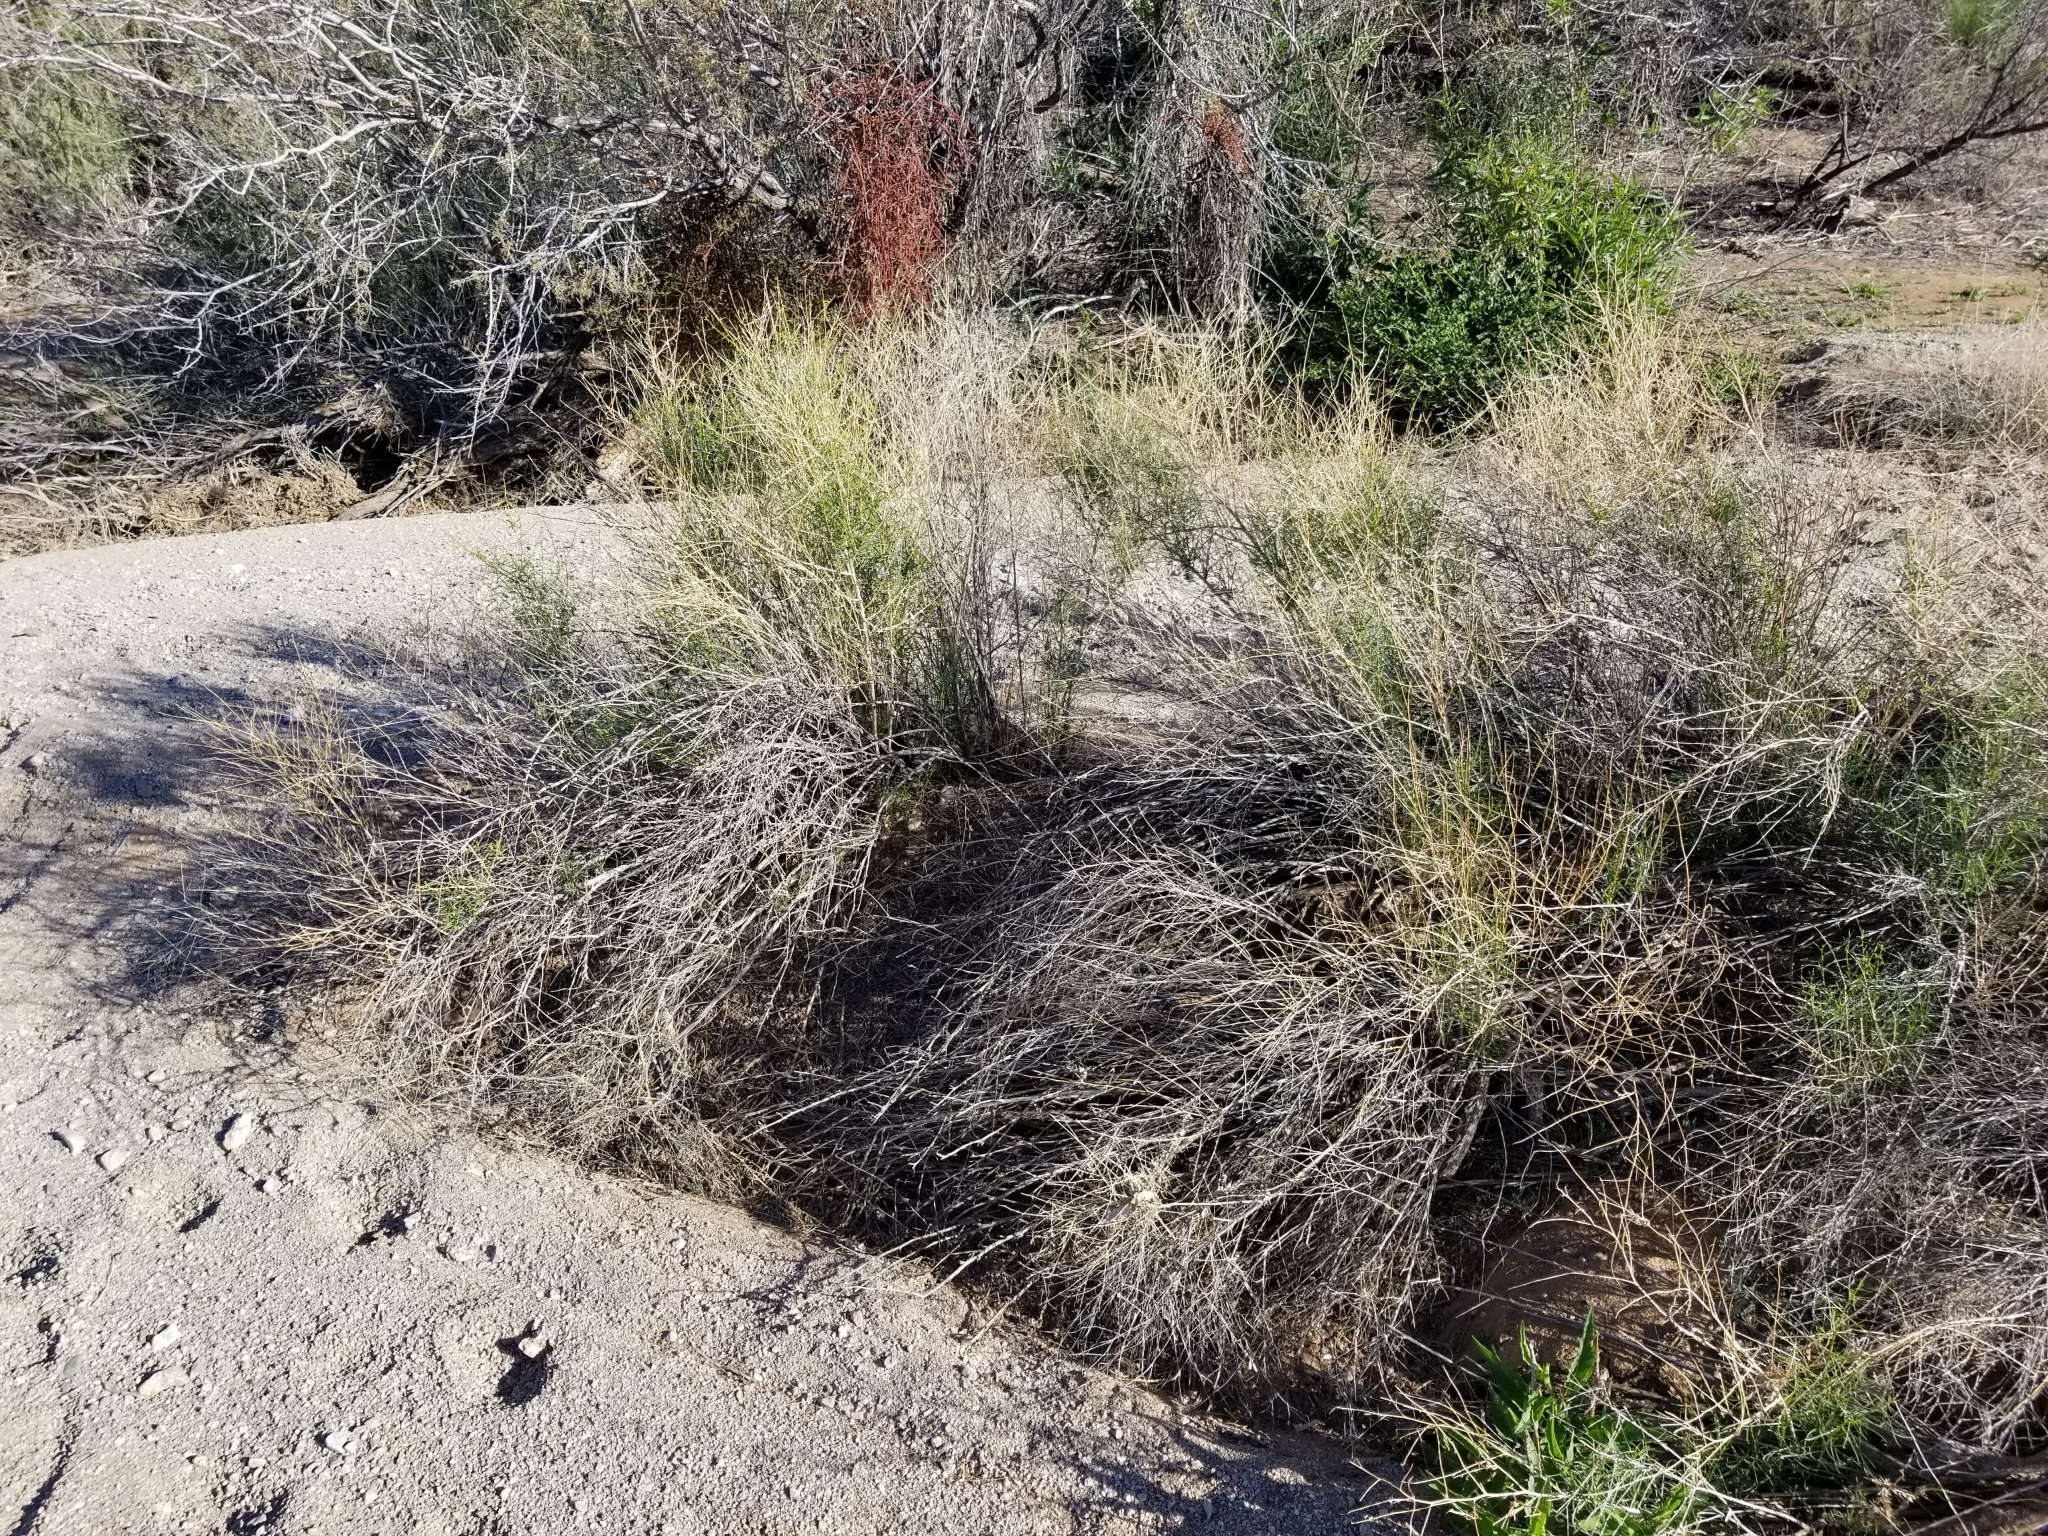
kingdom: Plantae
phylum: Tracheophyta
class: Magnoliopsida
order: Asterales
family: Asteraceae
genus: Ambrosia
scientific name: Ambrosia salsola
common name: Burrobrush
